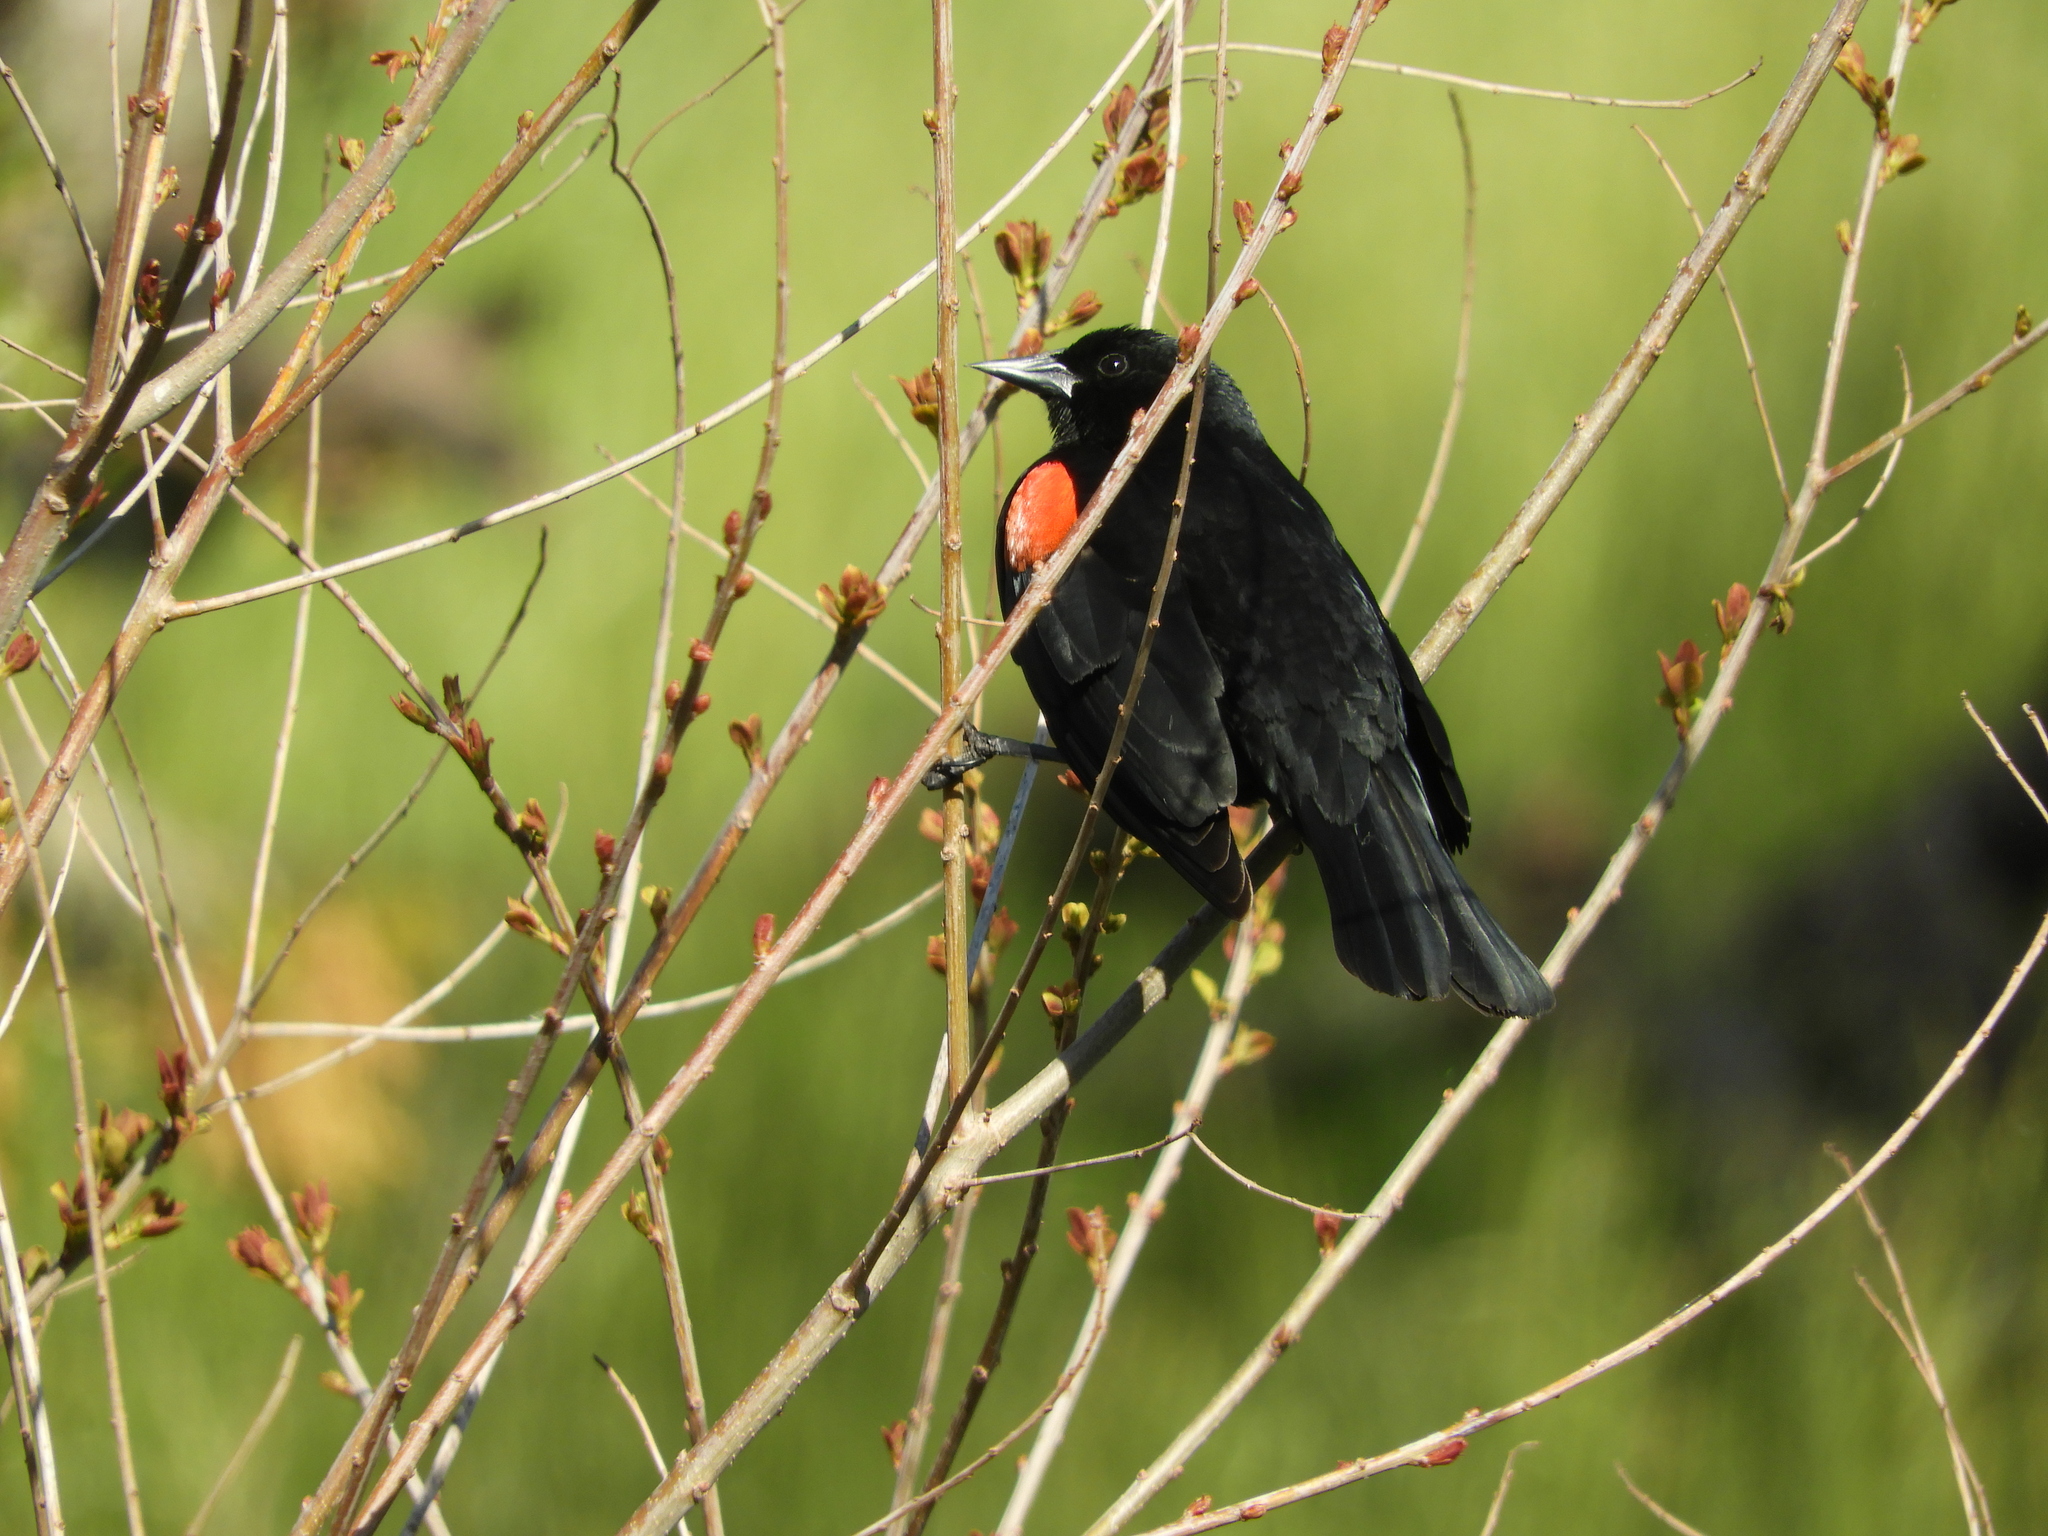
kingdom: Animalia
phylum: Chordata
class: Aves
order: Passeriformes
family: Icteridae
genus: Agelaius
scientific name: Agelaius phoeniceus
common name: Red-winged blackbird
